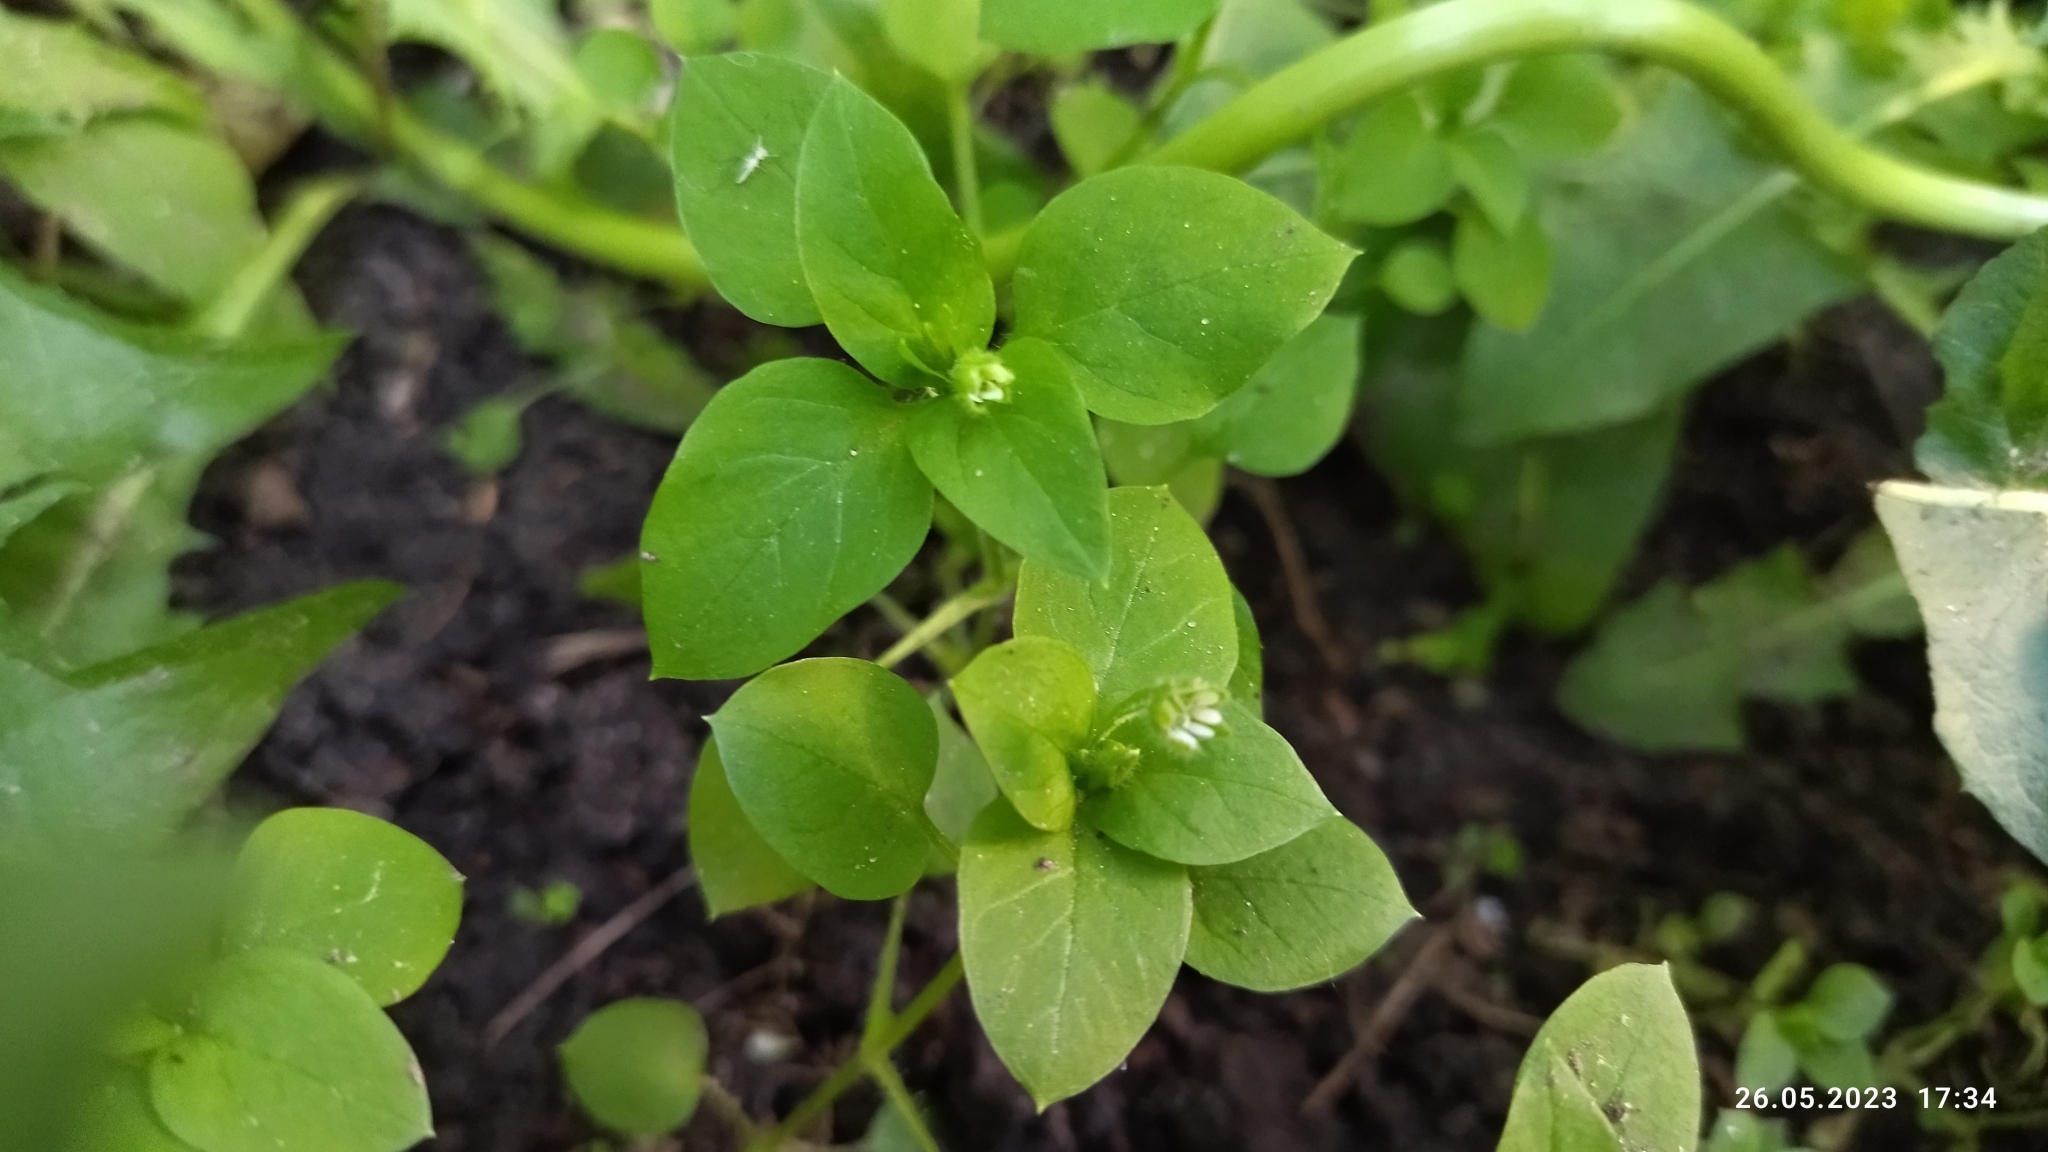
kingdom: Plantae
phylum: Tracheophyta
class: Magnoliopsida
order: Caryophyllales
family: Caryophyllaceae
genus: Stellaria
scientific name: Stellaria media
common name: Common chickweed
